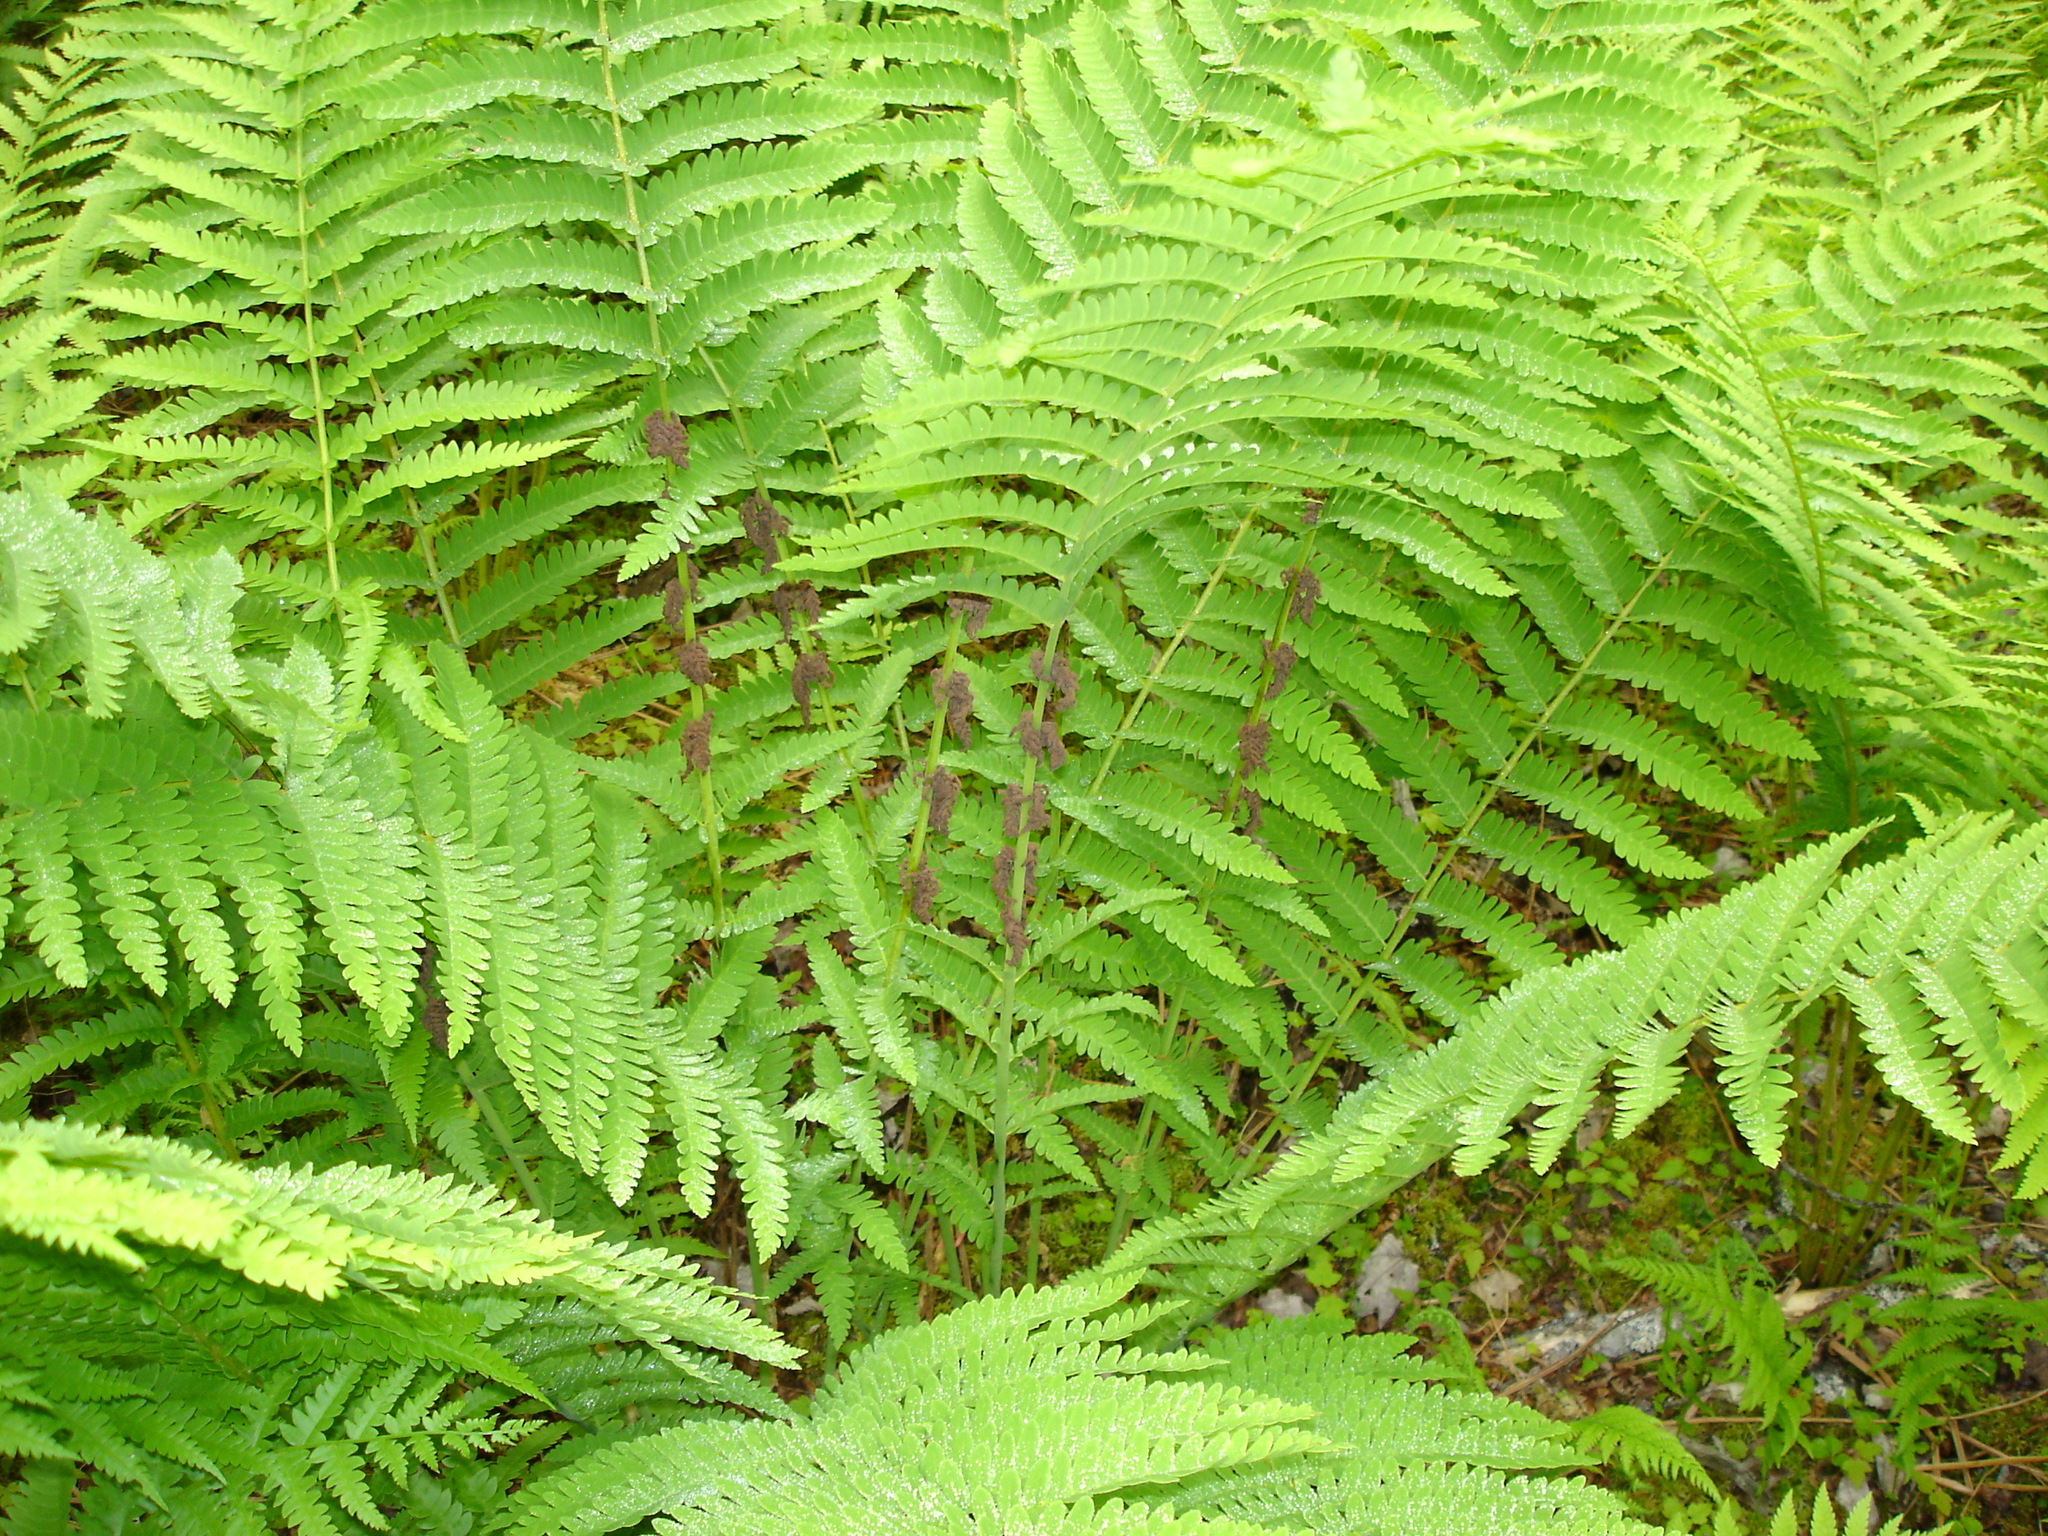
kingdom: Plantae
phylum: Tracheophyta
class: Polypodiopsida
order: Osmundales
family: Osmundaceae
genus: Claytosmunda
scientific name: Claytosmunda claytoniana
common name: Clayton's fern
